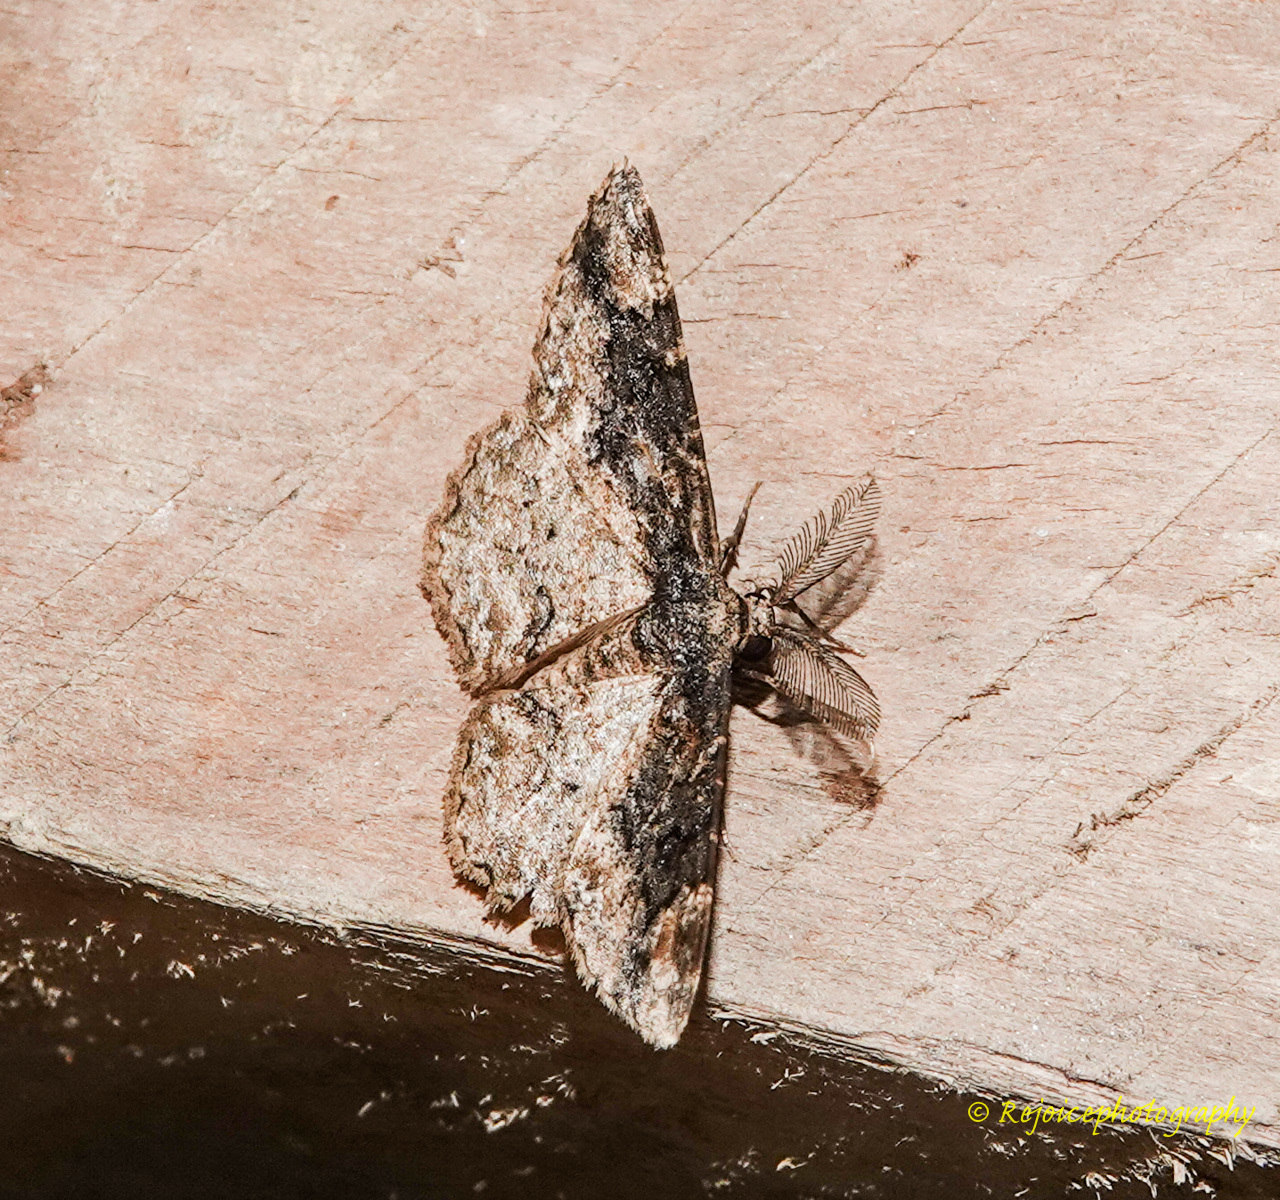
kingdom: Animalia
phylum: Arthropoda
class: Insecta
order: Lepidoptera
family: Geometridae
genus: Parapholodes
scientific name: Parapholodes
